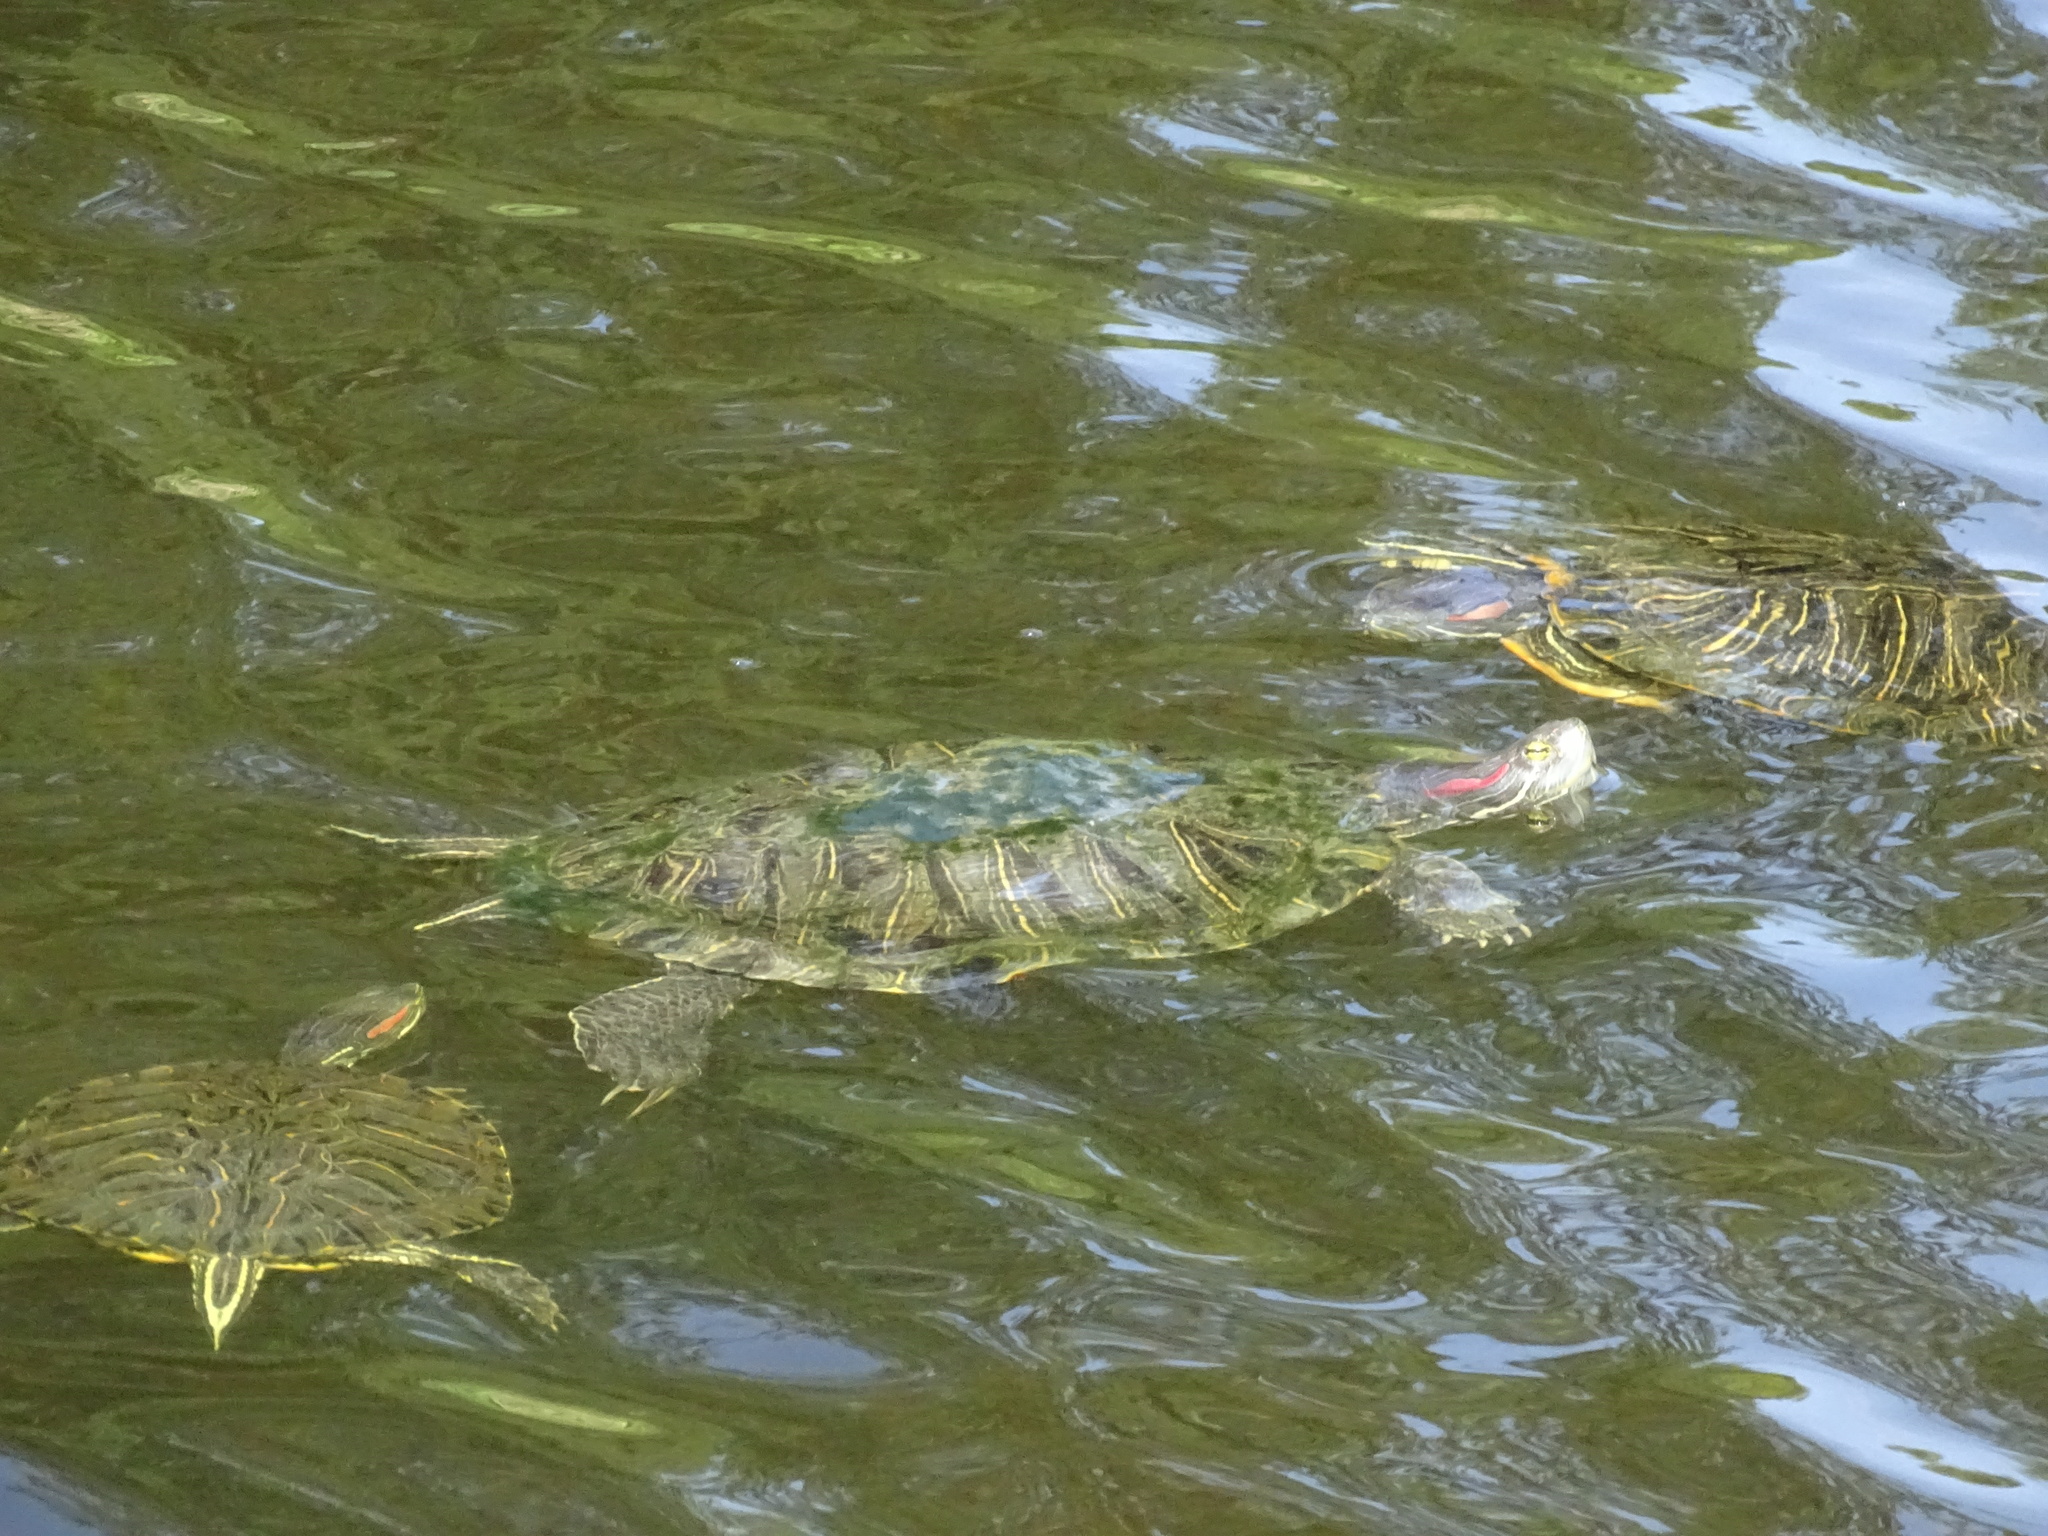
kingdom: Animalia
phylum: Chordata
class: Testudines
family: Emydidae
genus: Trachemys
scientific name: Trachemys scripta
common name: Slider
